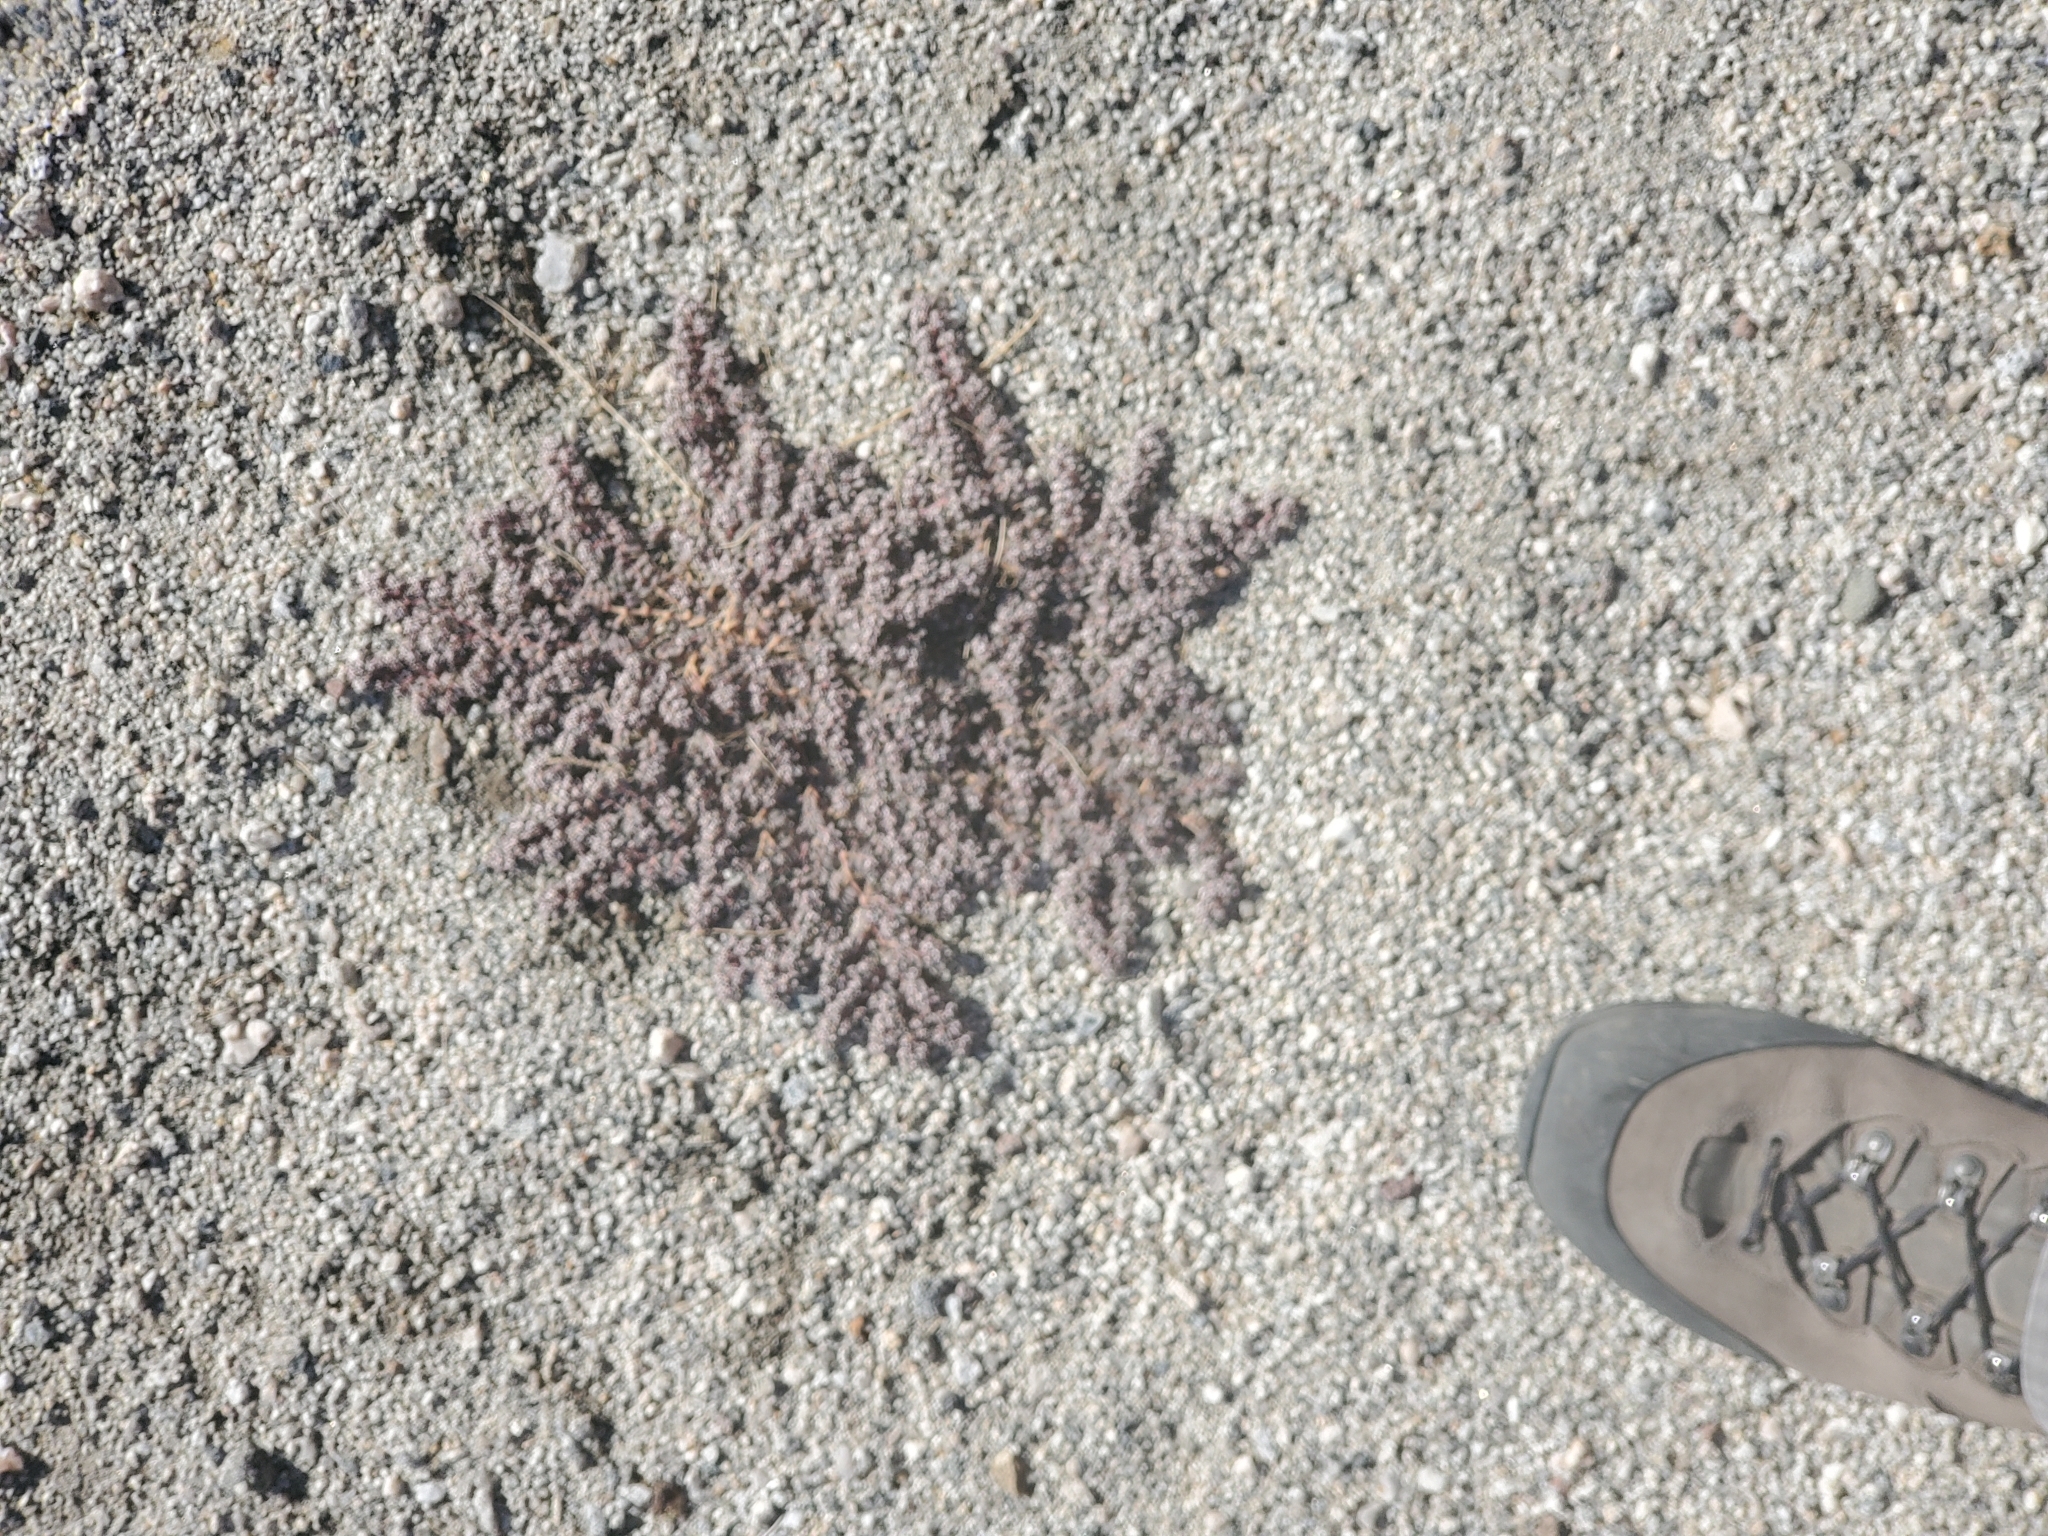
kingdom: Plantae
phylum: Tracheophyta
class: Magnoliopsida
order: Malpighiales
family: Euphorbiaceae
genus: Euphorbia
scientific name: Euphorbia pediculifera
